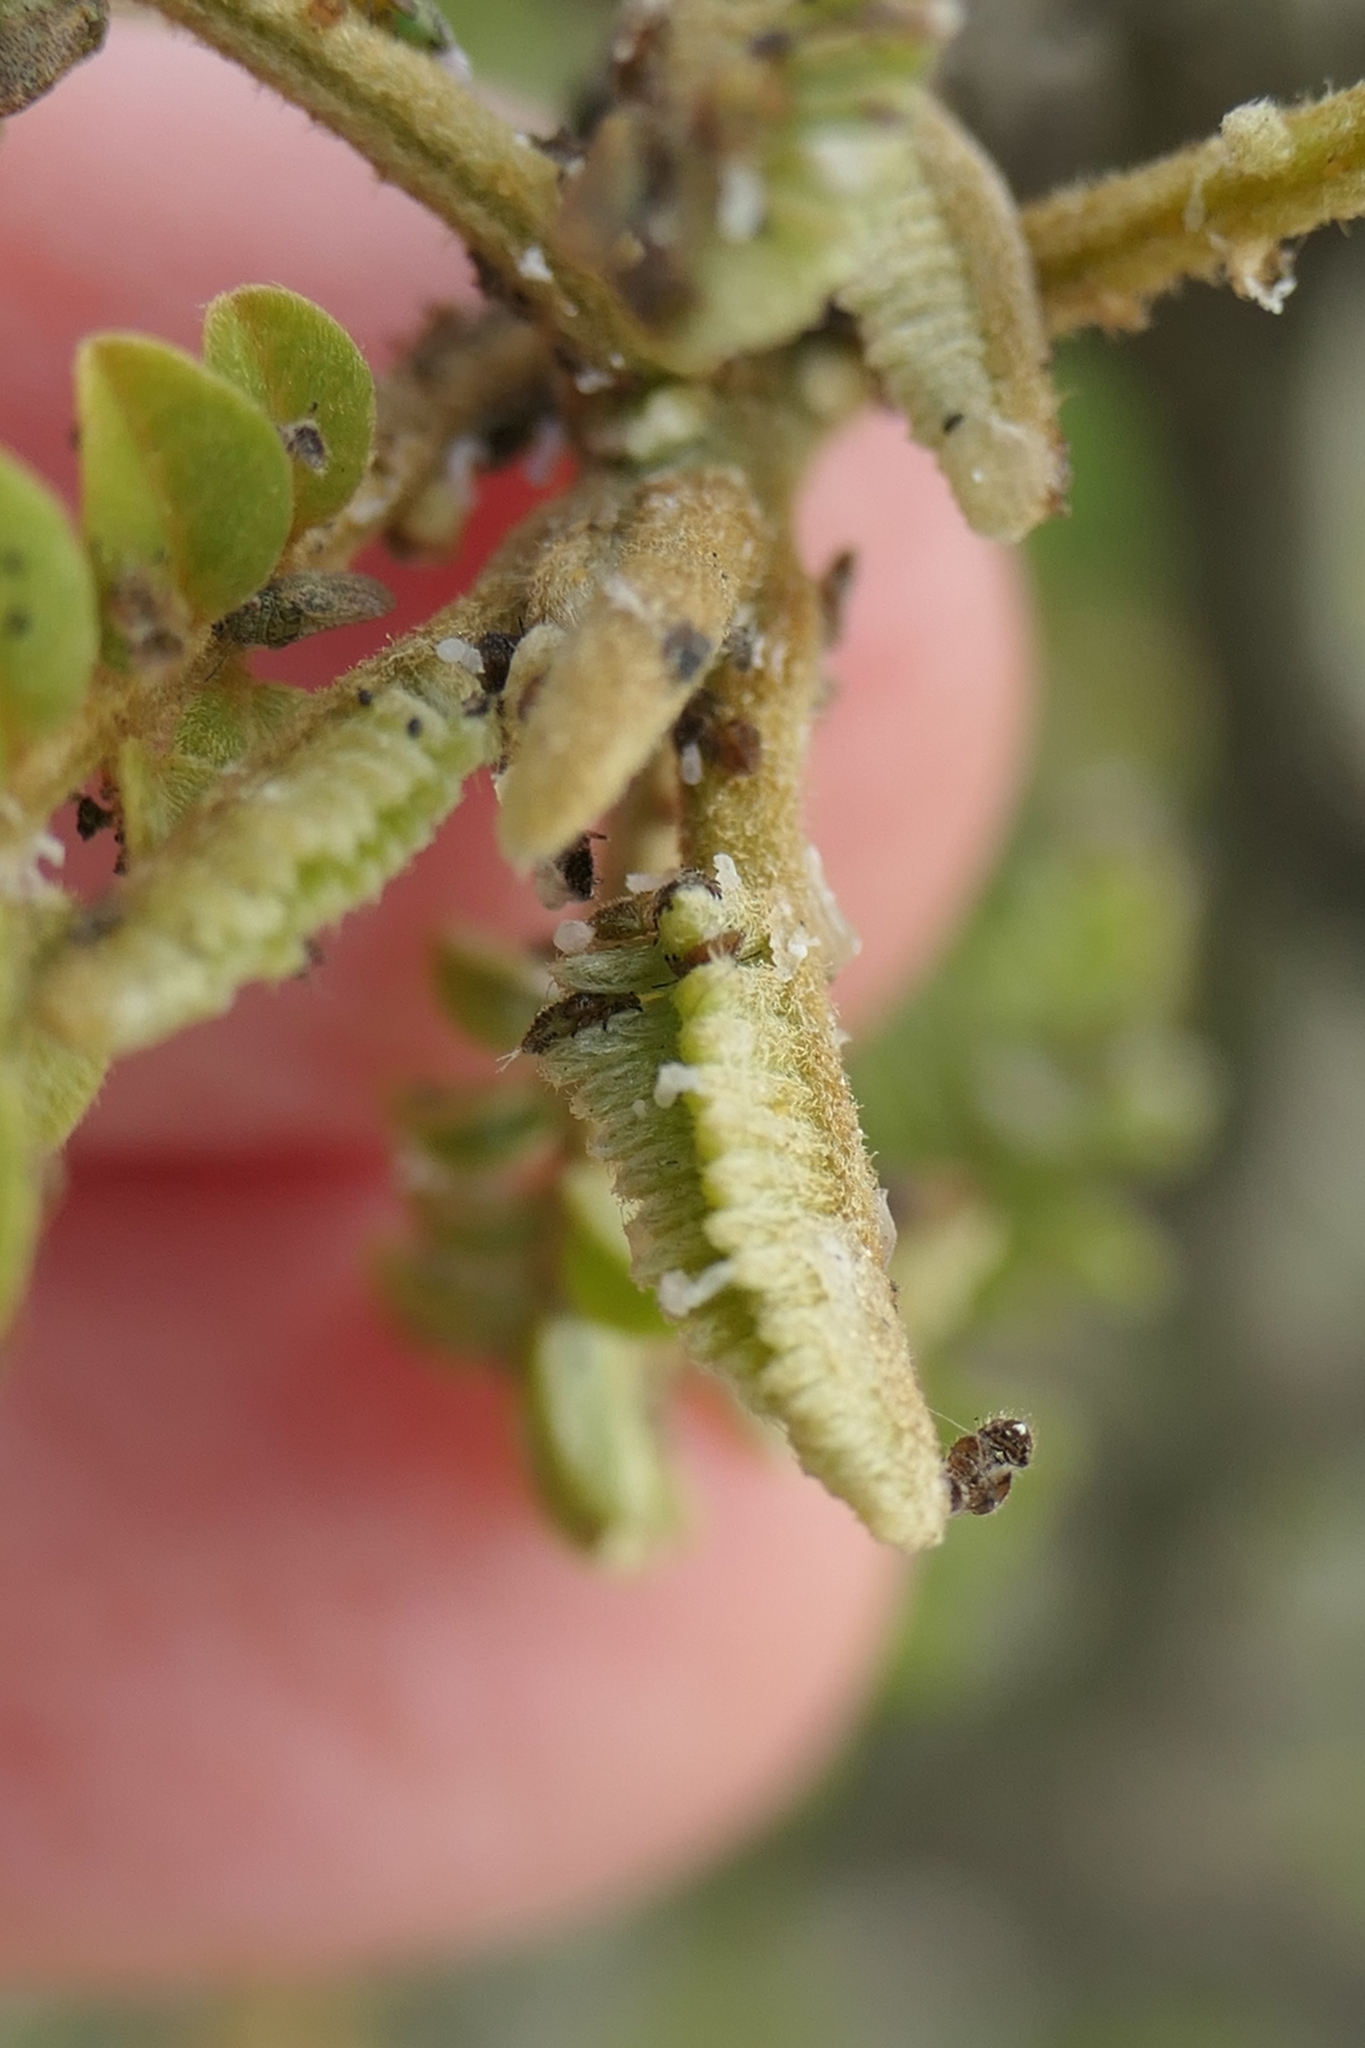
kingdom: Animalia
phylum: Arthropoda
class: Insecta
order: Hemiptera
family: Psyllidae
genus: Psylla
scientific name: Psylla frodobagginsi
